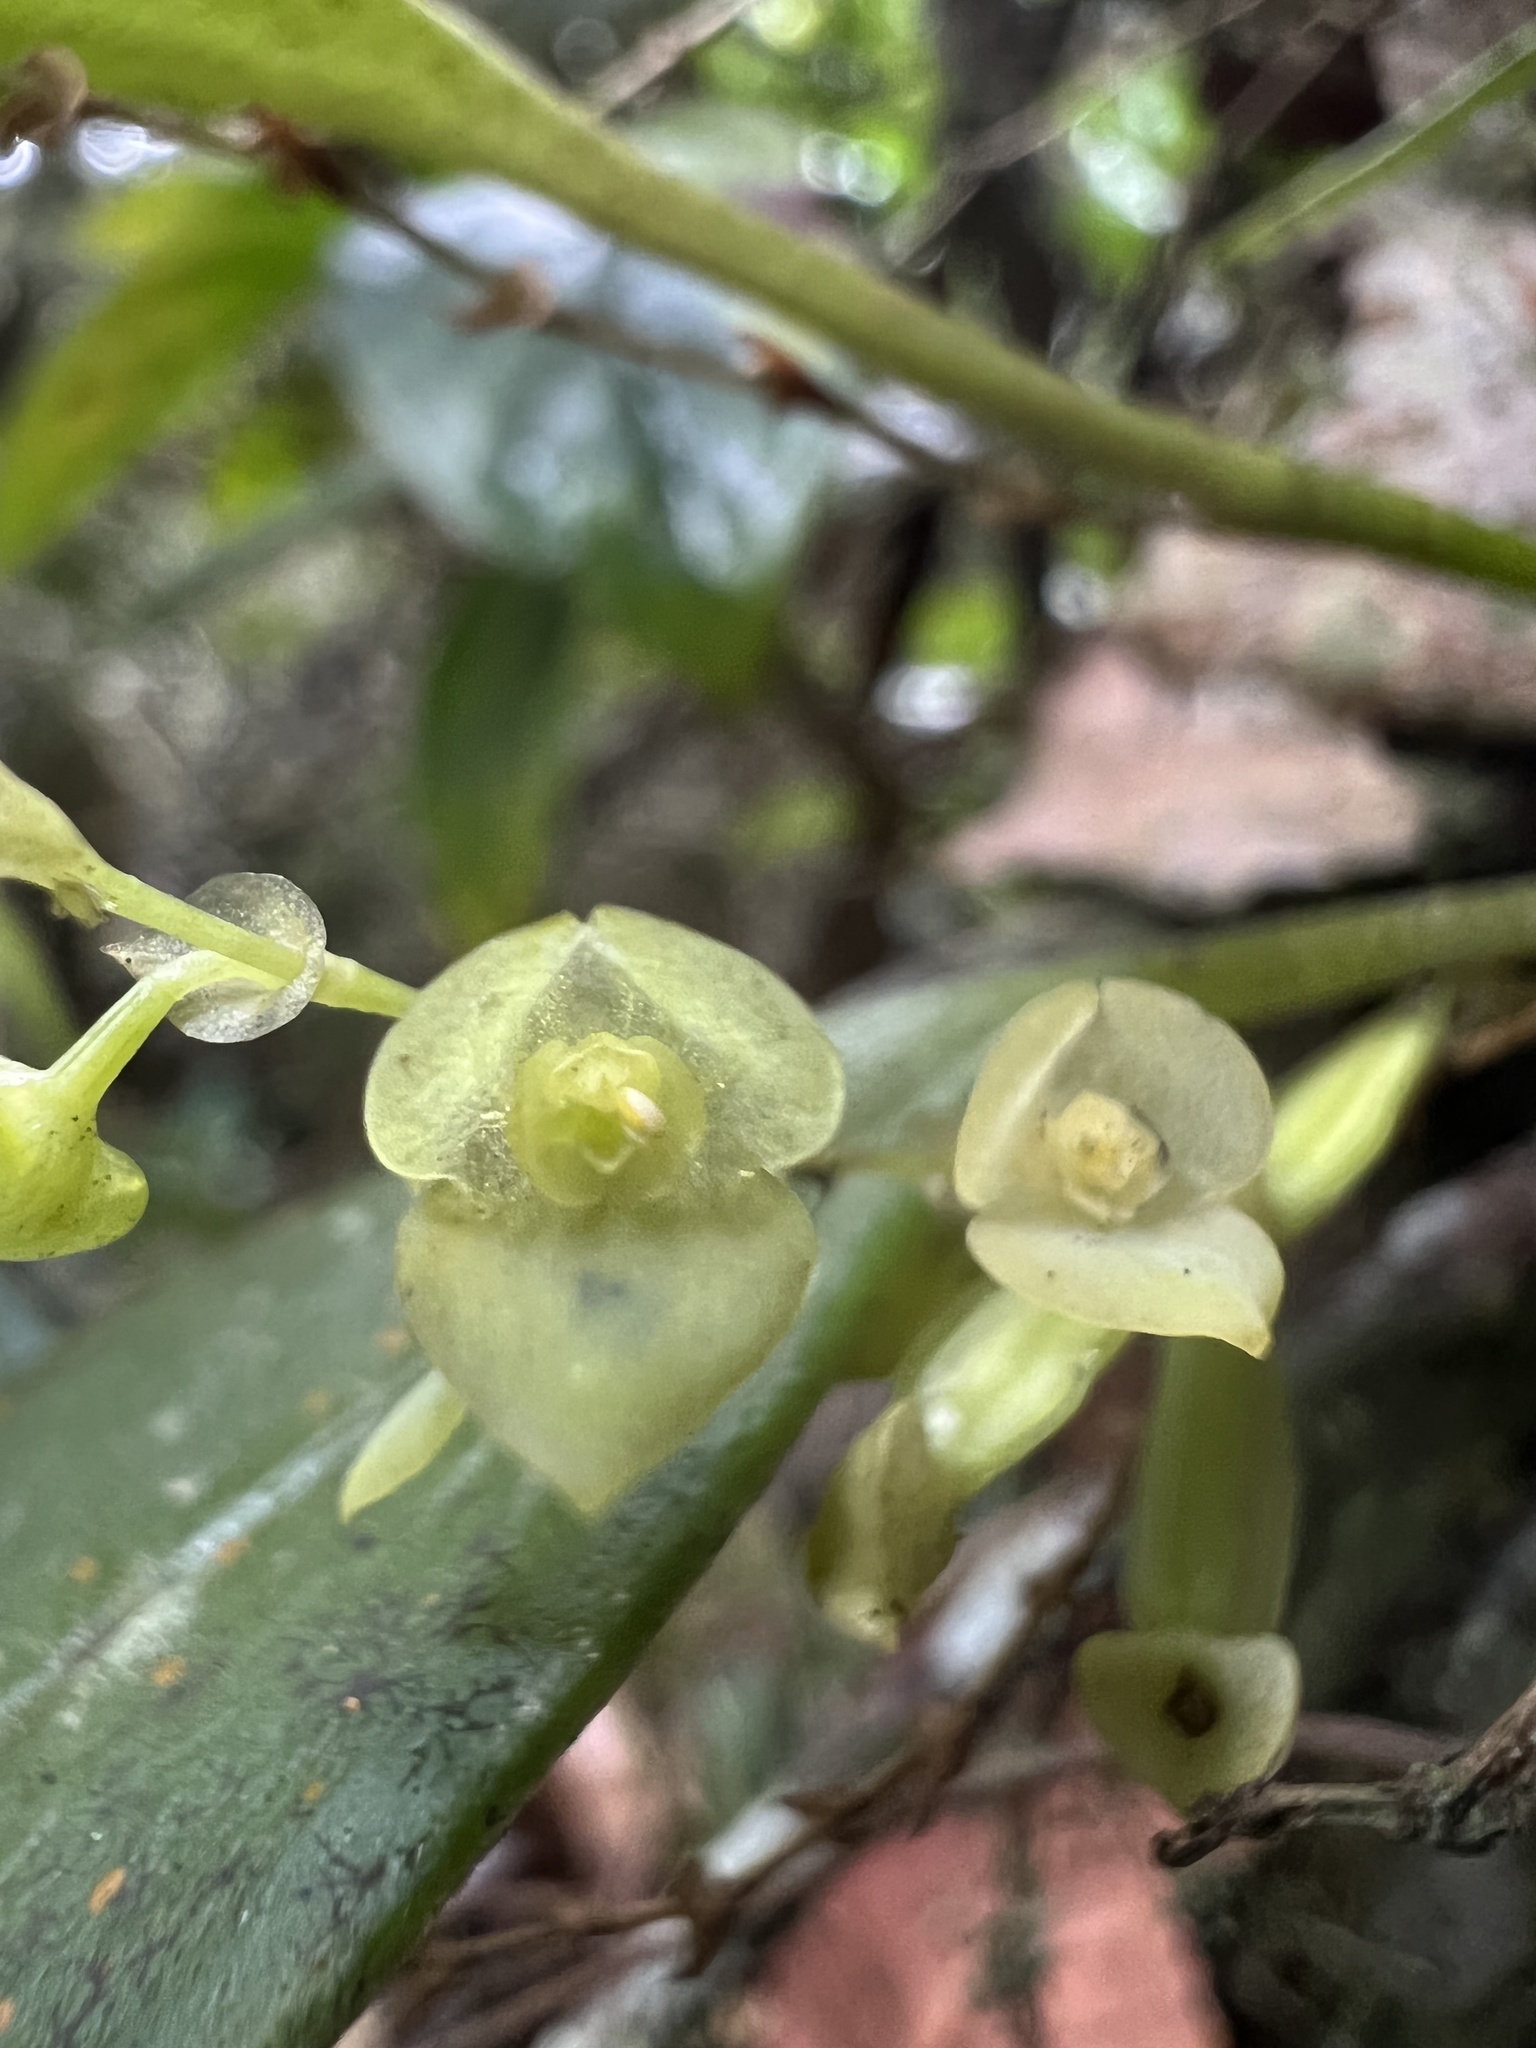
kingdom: Plantae
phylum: Tracheophyta
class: Liliopsida
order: Asparagales
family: Orchidaceae
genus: Stelis
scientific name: Stelis parvilabris
